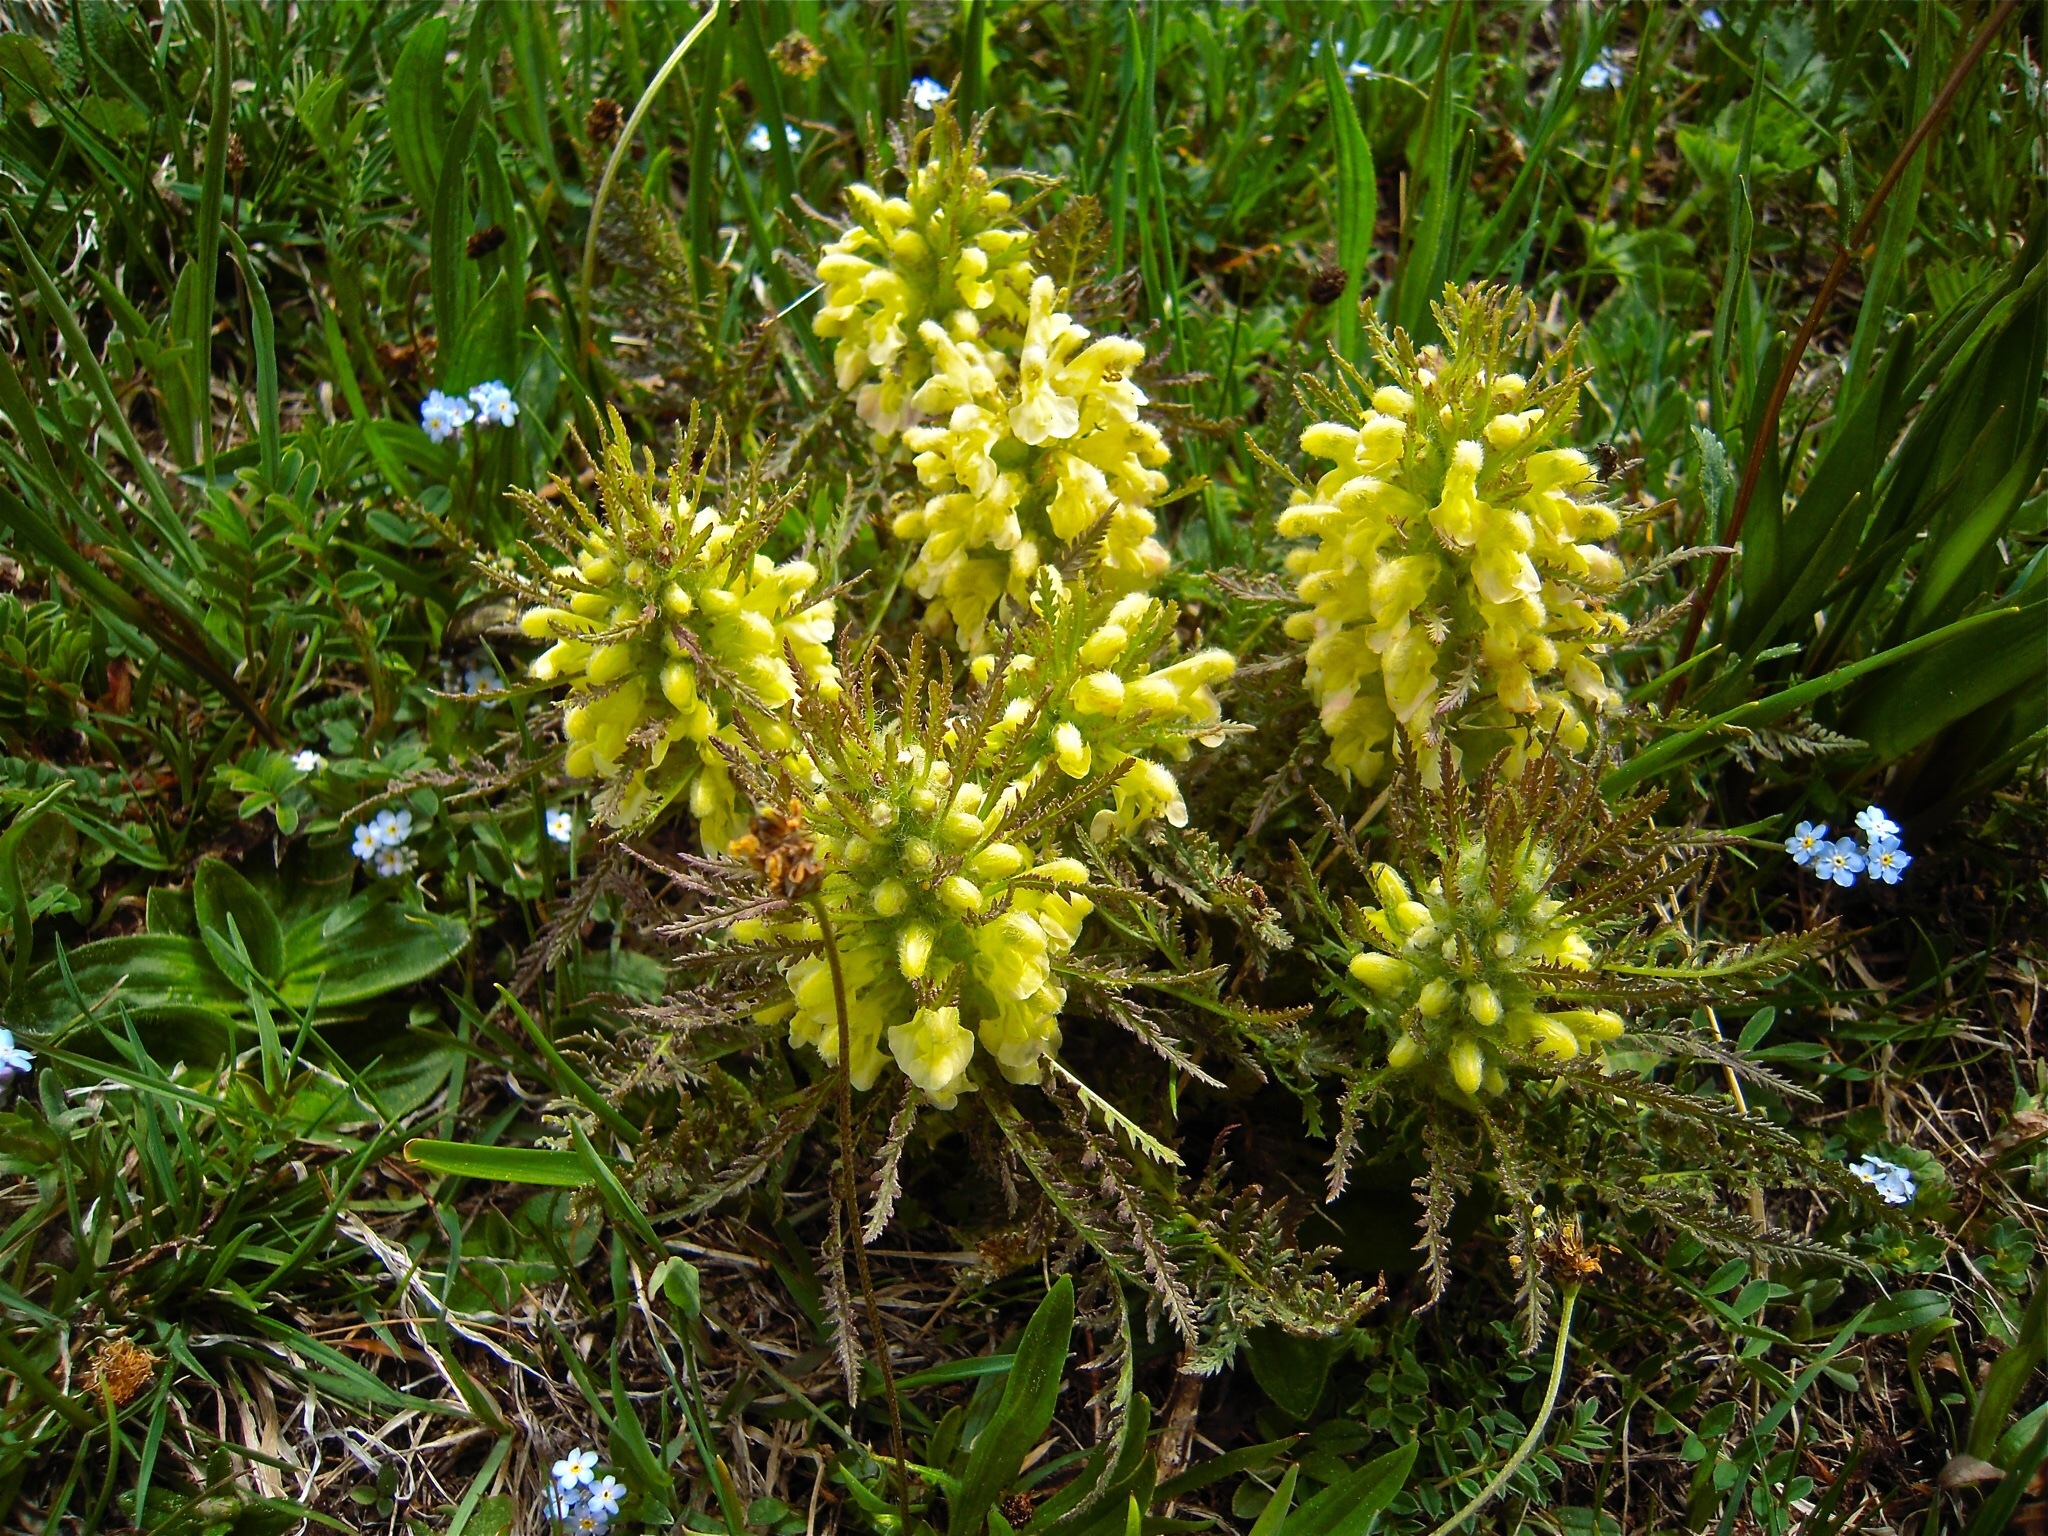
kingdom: Plantae
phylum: Tracheophyta
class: Magnoliopsida
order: Lamiales
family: Orobanchaceae
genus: Pedicularis
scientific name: Pedicularis foliosa
